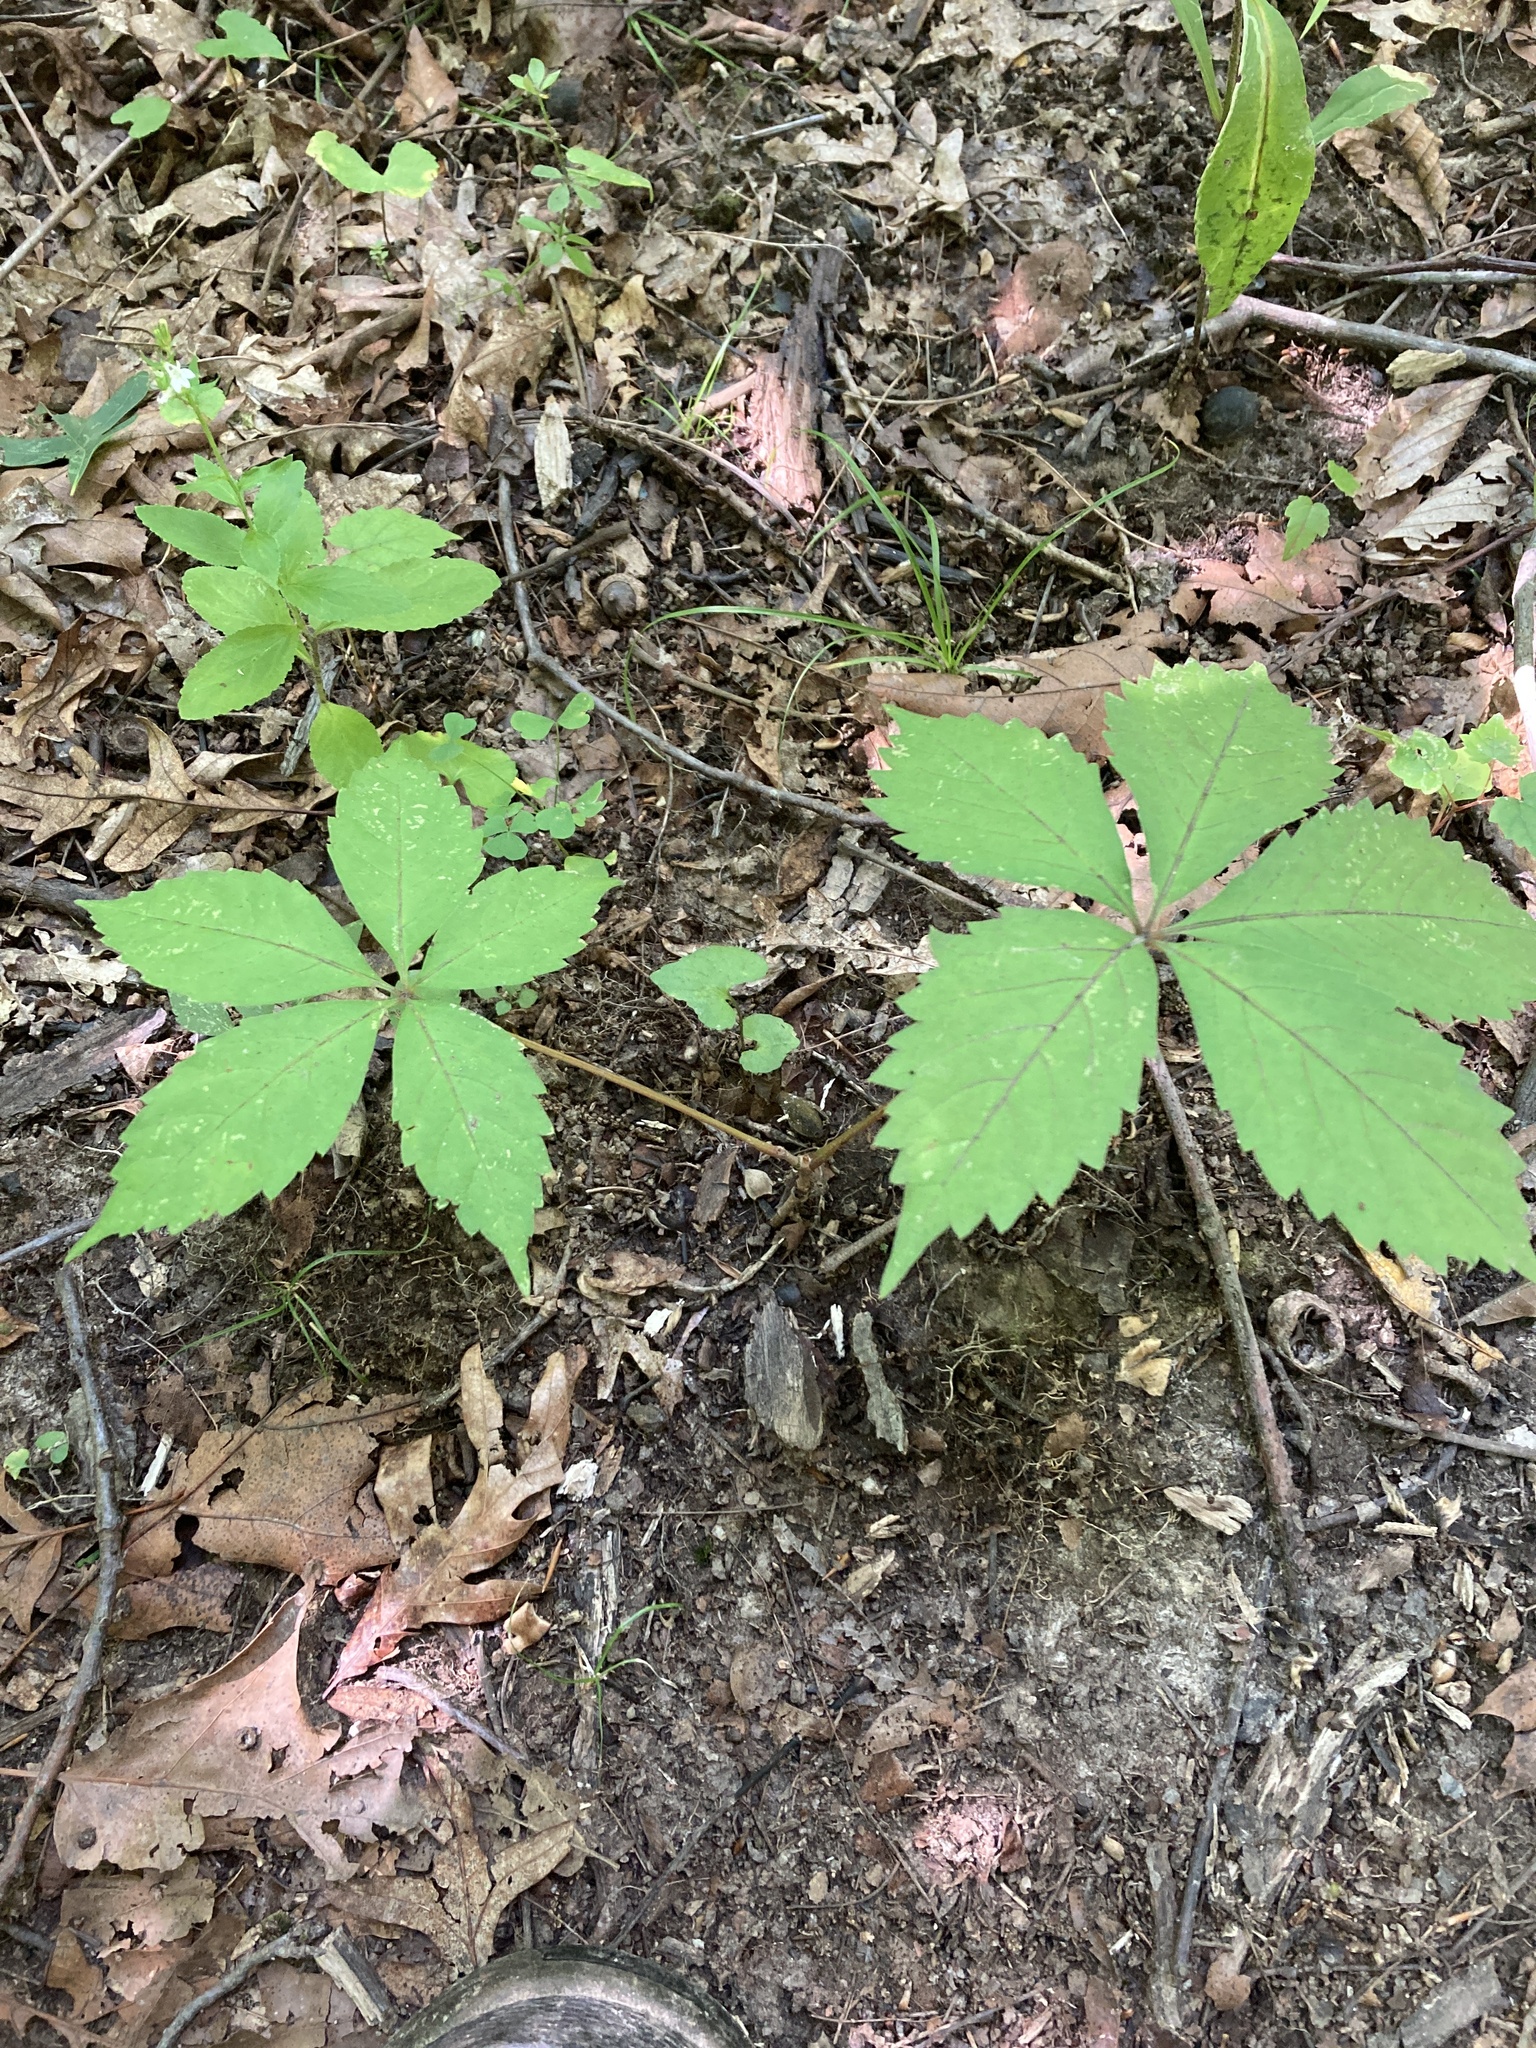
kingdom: Plantae
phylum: Tracheophyta
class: Magnoliopsida
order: Vitales
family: Vitaceae
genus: Parthenocissus
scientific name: Parthenocissus quinquefolia
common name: Virginia-creeper
